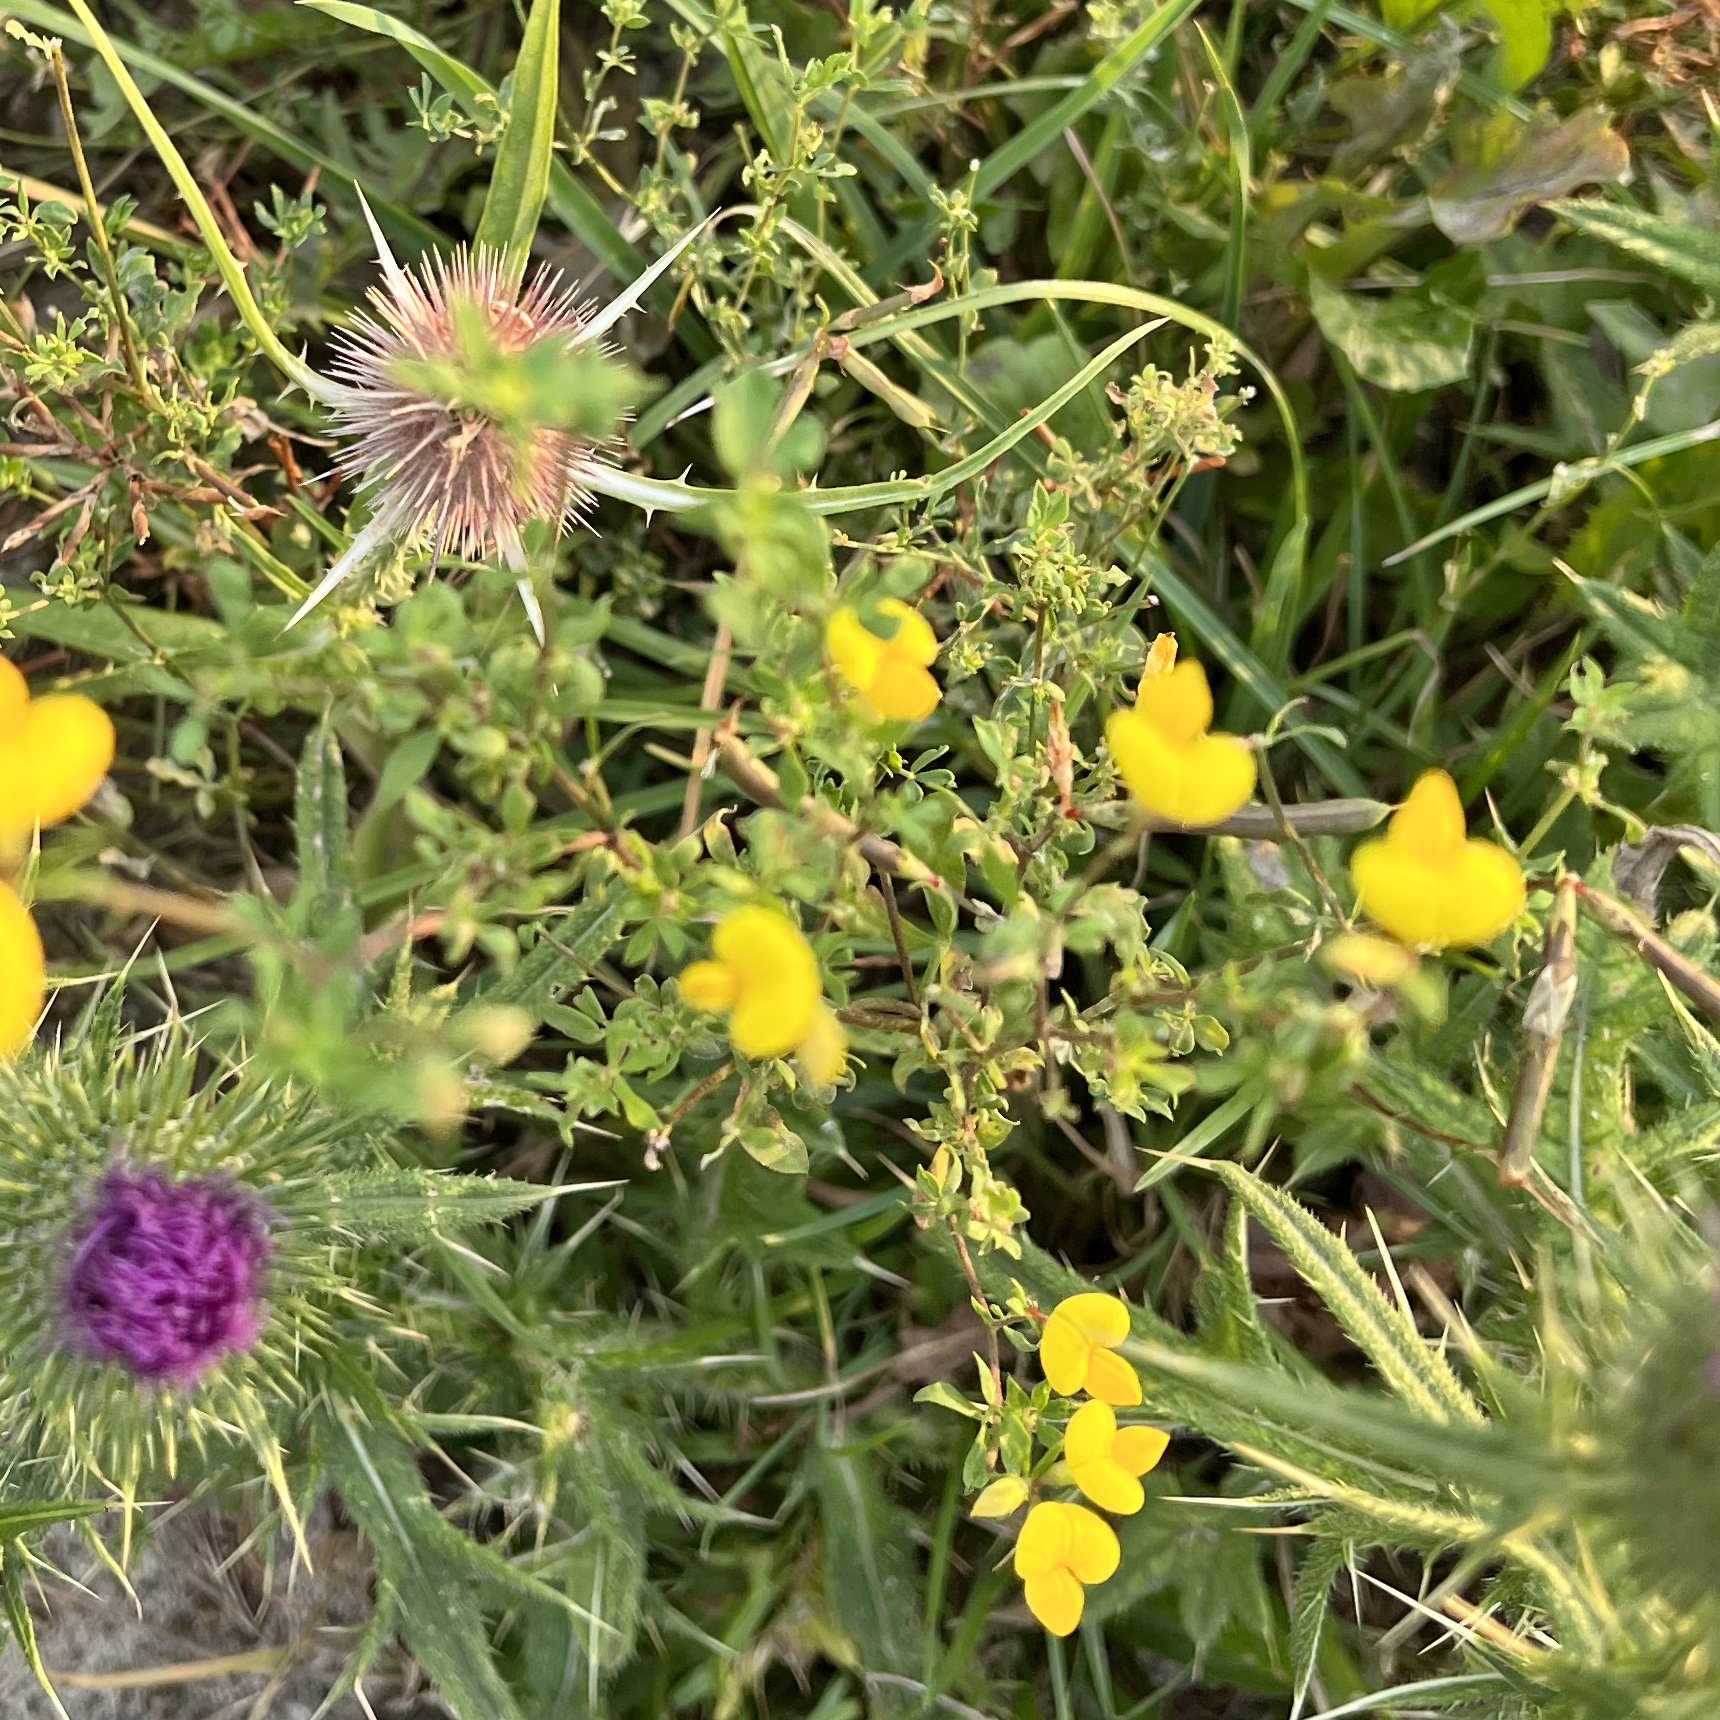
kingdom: Plantae
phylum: Tracheophyta
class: Magnoliopsida
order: Fabales
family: Fabaceae
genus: Lotus
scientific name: Lotus corniculatus
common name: Common bird's-foot-trefoil
